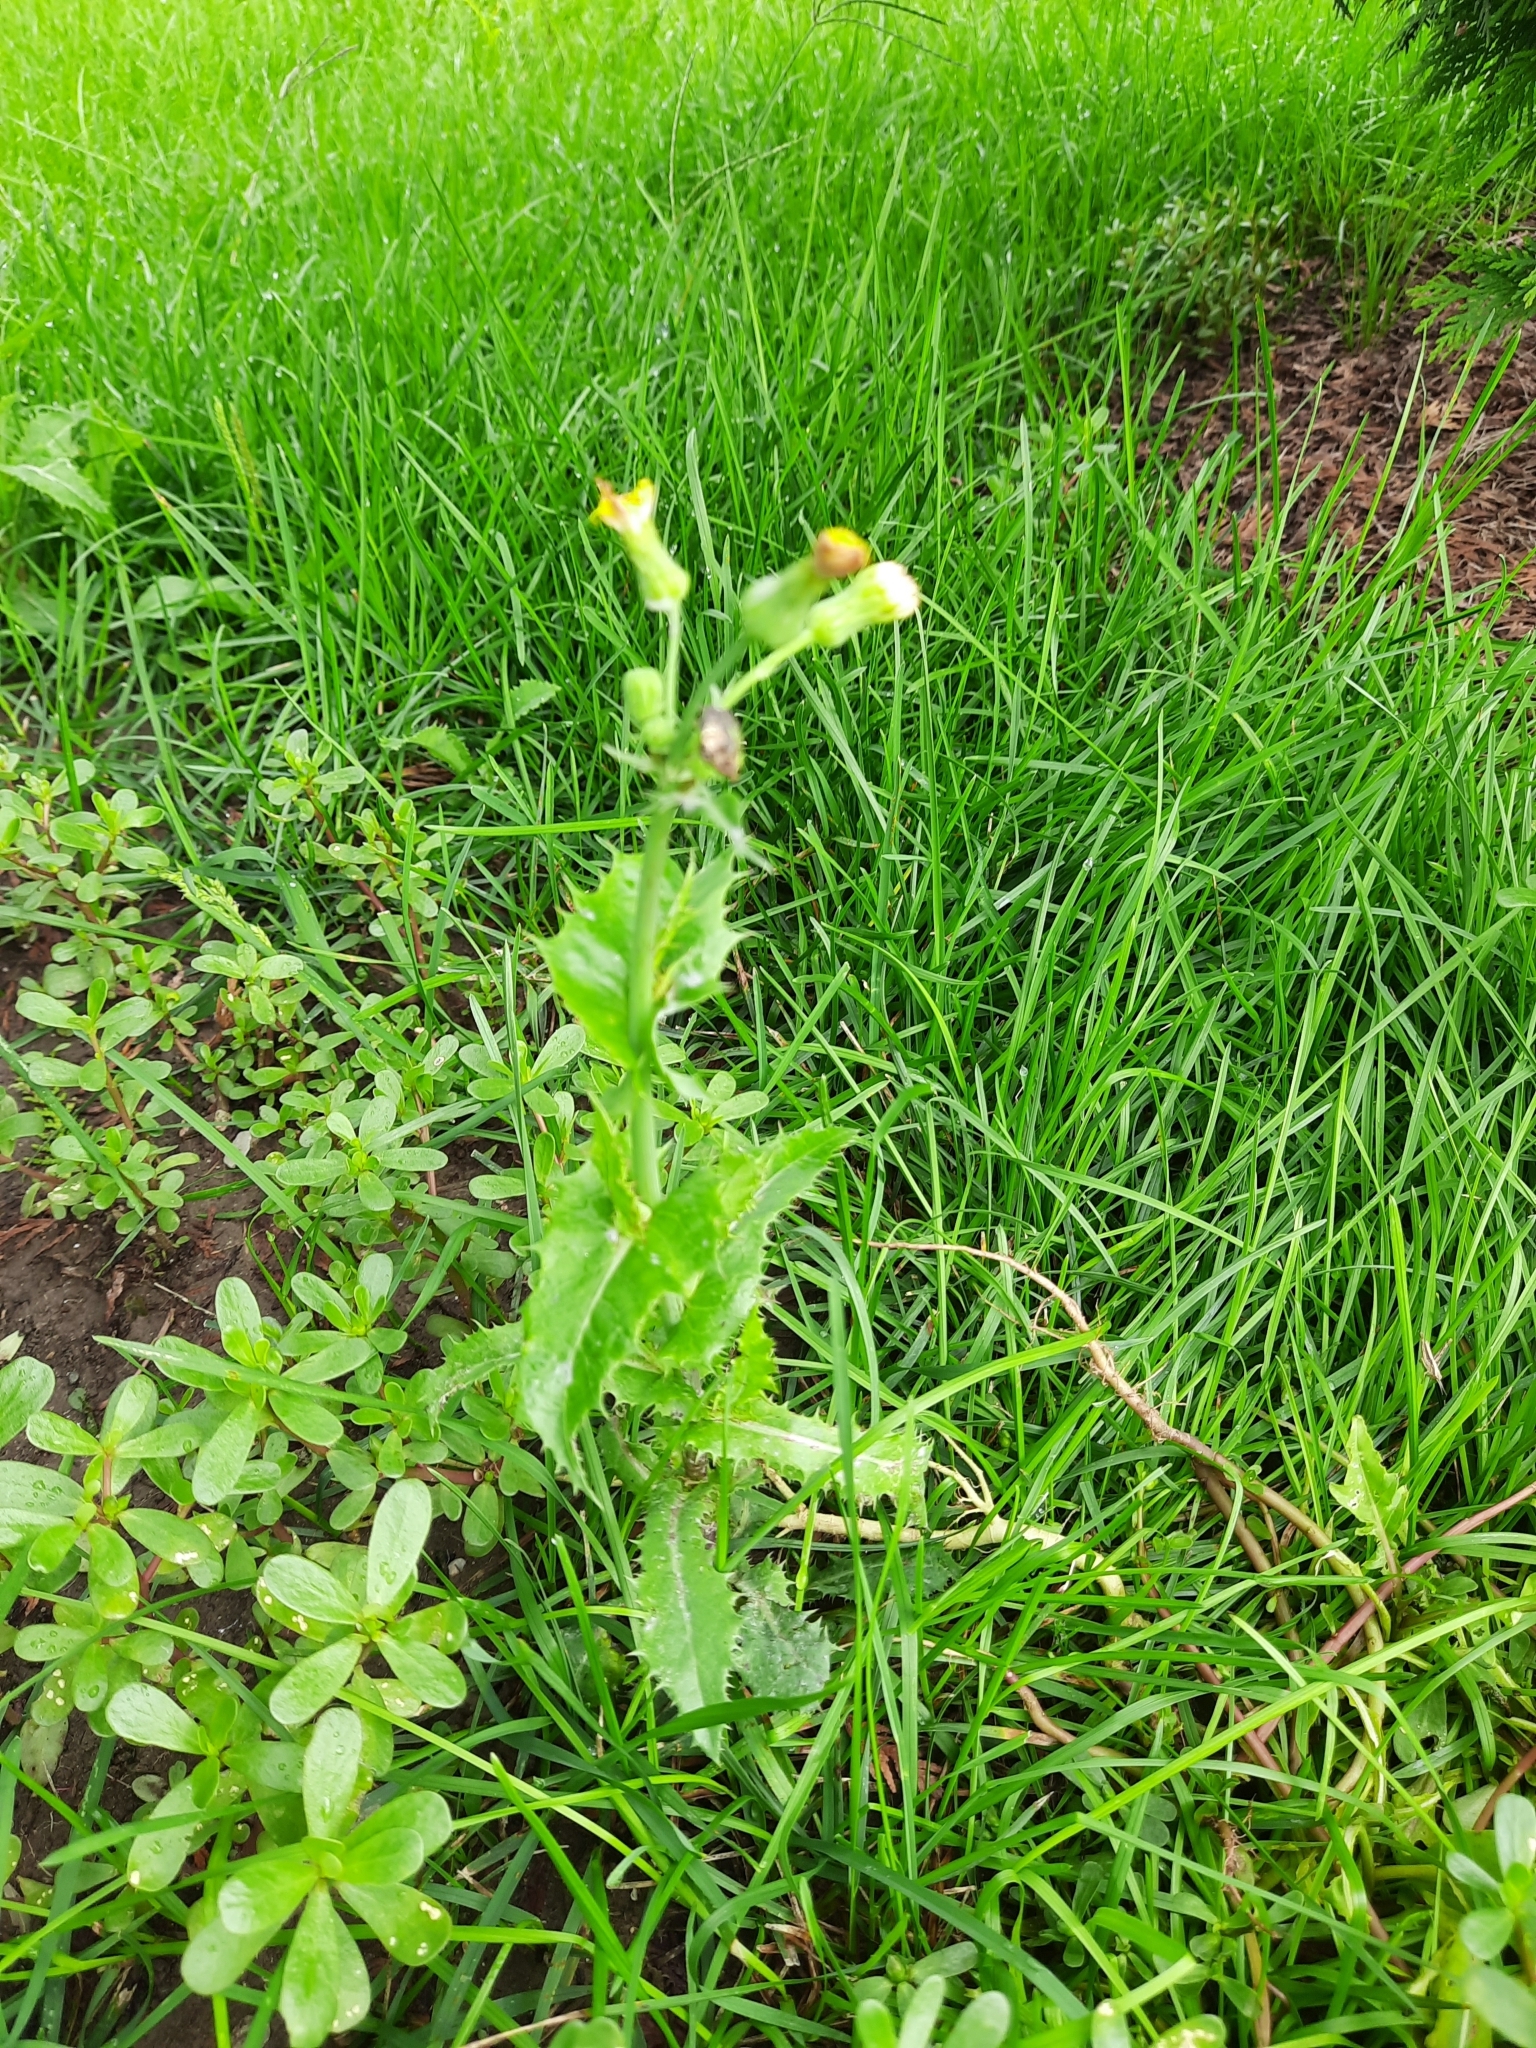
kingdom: Plantae
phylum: Tracheophyta
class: Magnoliopsida
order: Asterales
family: Asteraceae
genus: Sonchus
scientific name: Sonchus asper
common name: Prickly sow-thistle
